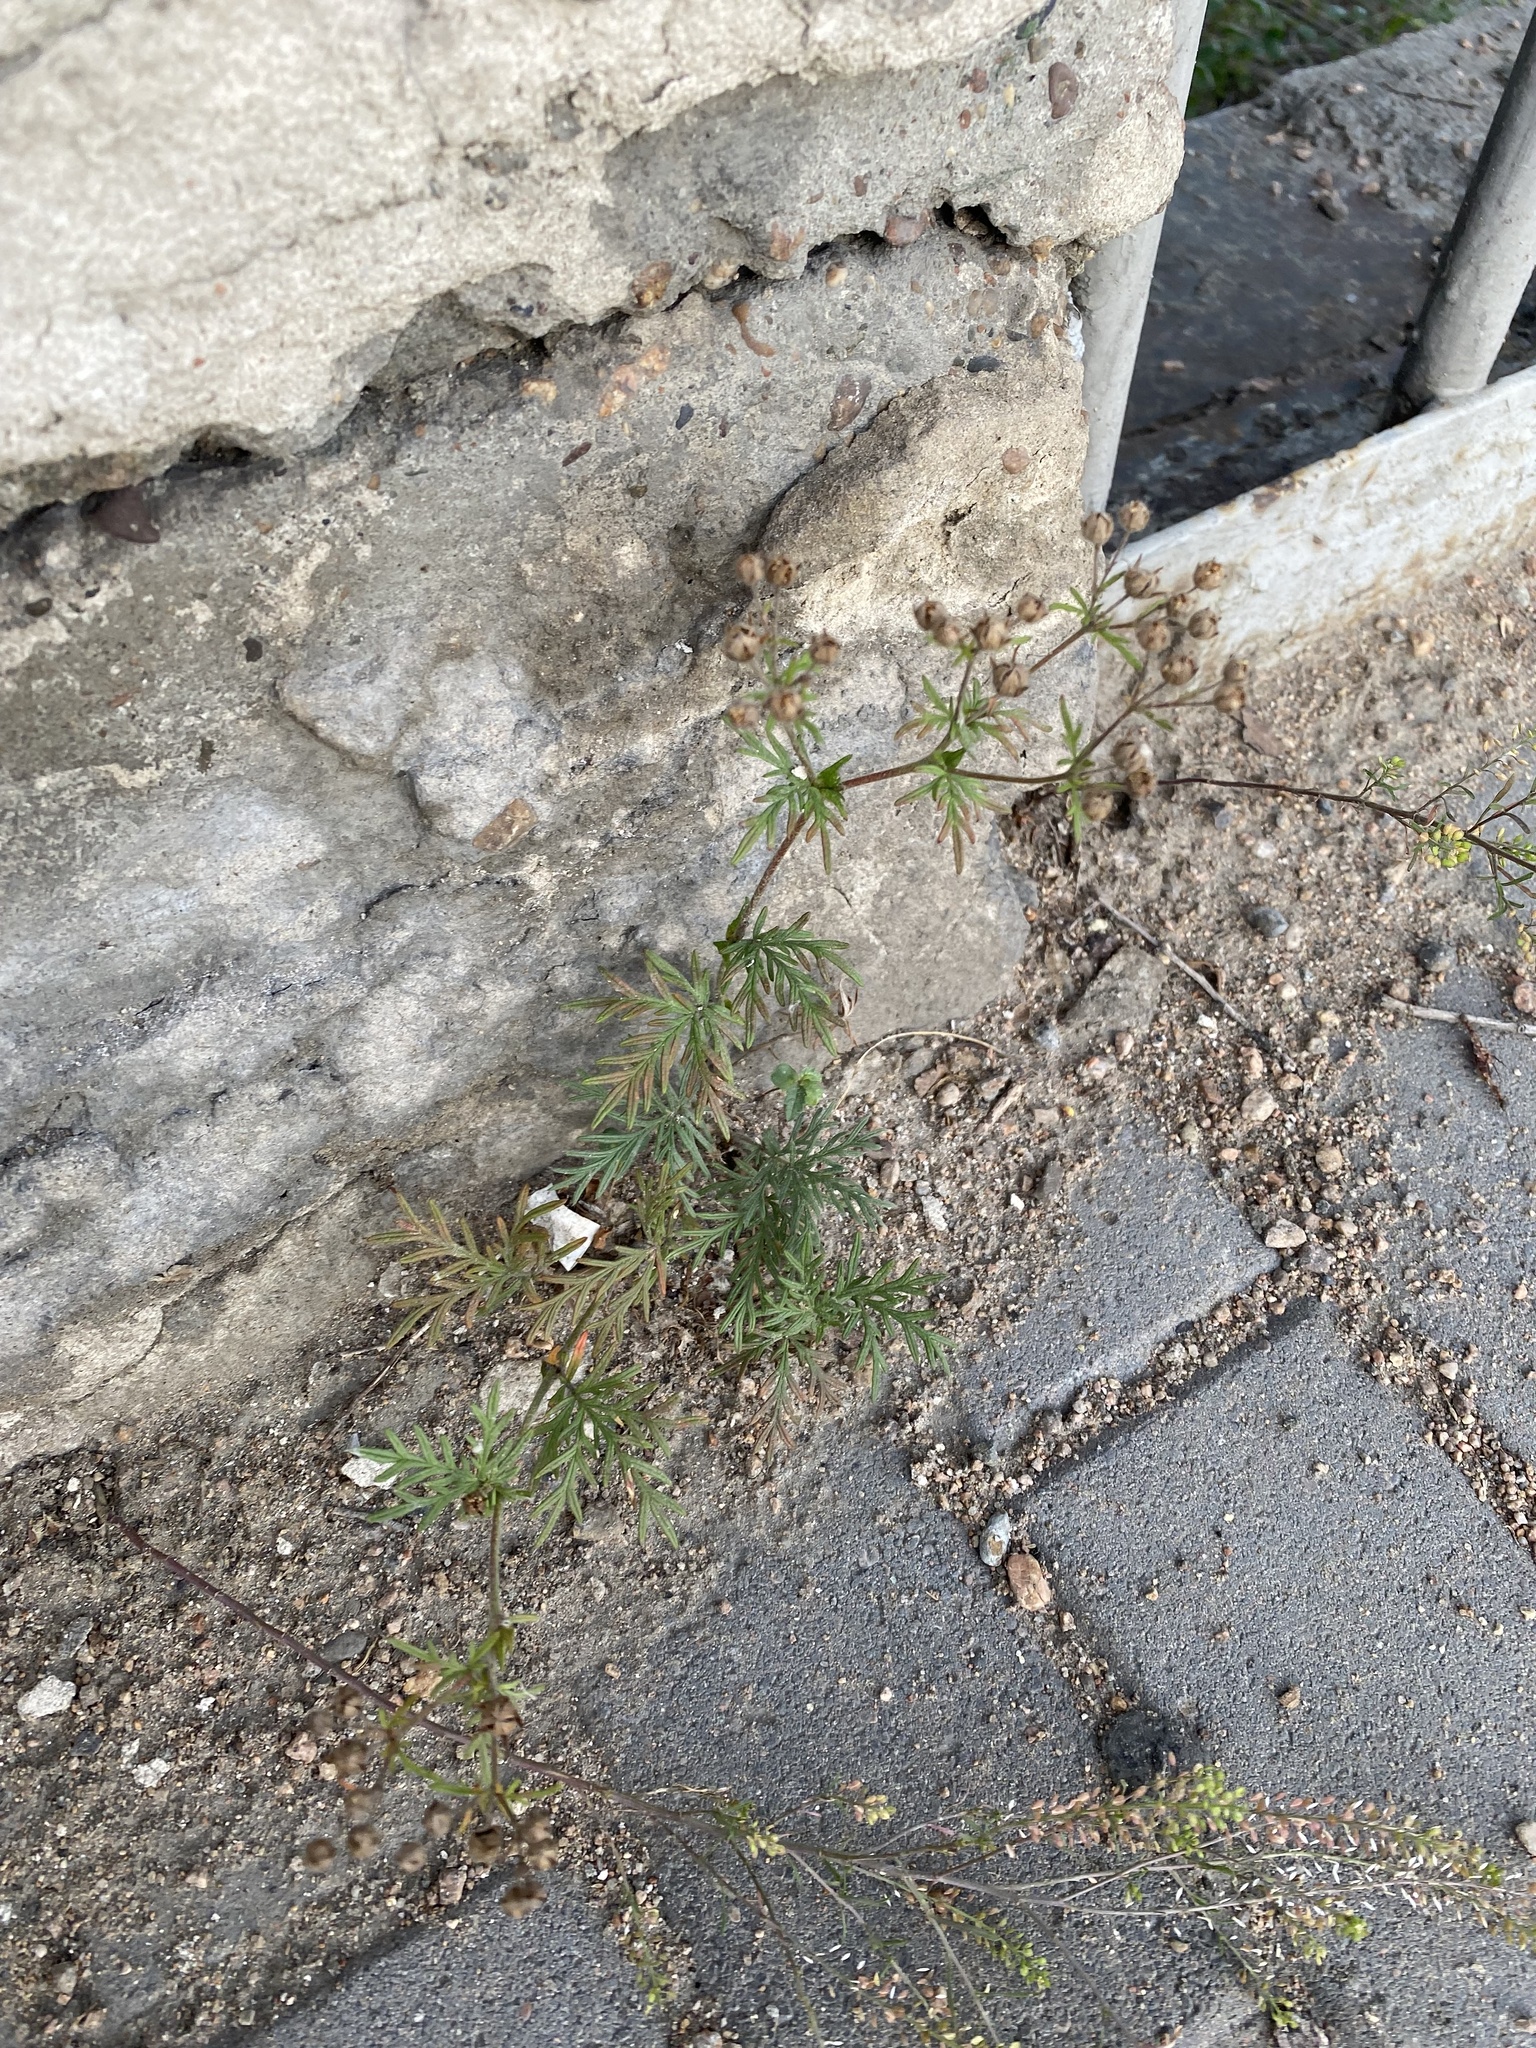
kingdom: Plantae
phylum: Tracheophyta
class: Magnoliopsida
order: Rosales
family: Rosaceae
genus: Potentilla
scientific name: Potentilla tergemina
